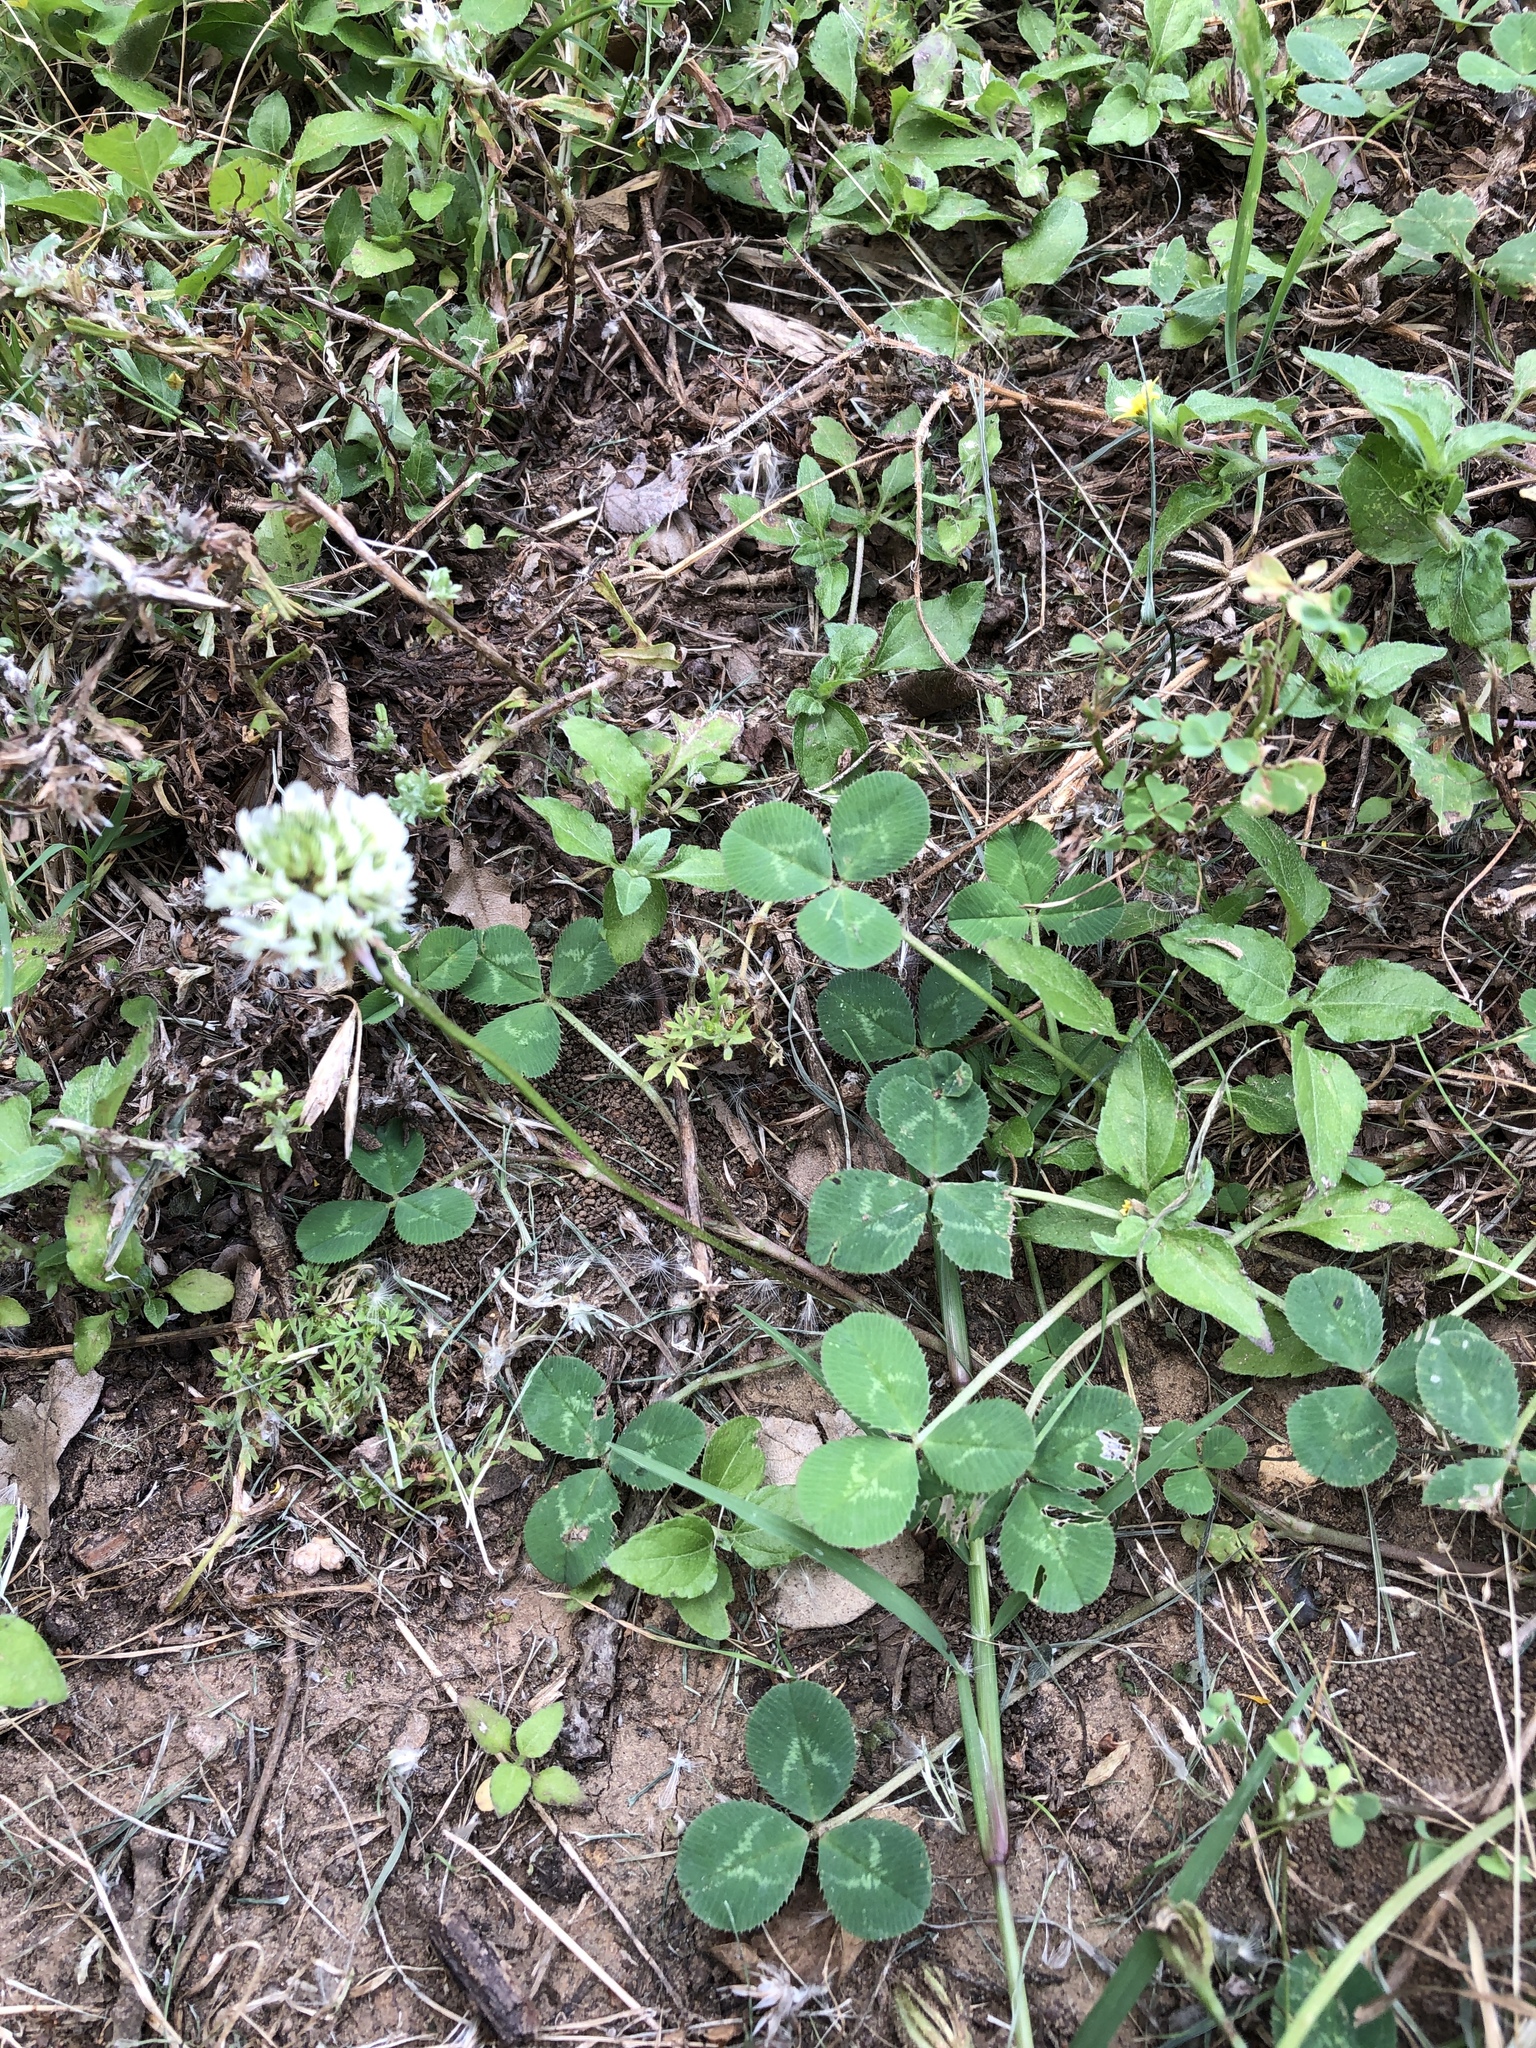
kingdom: Plantae
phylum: Tracheophyta
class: Magnoliopsida
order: Fabales
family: Fabaceae
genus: Trifolium
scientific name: Trifolium repens
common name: White clover
